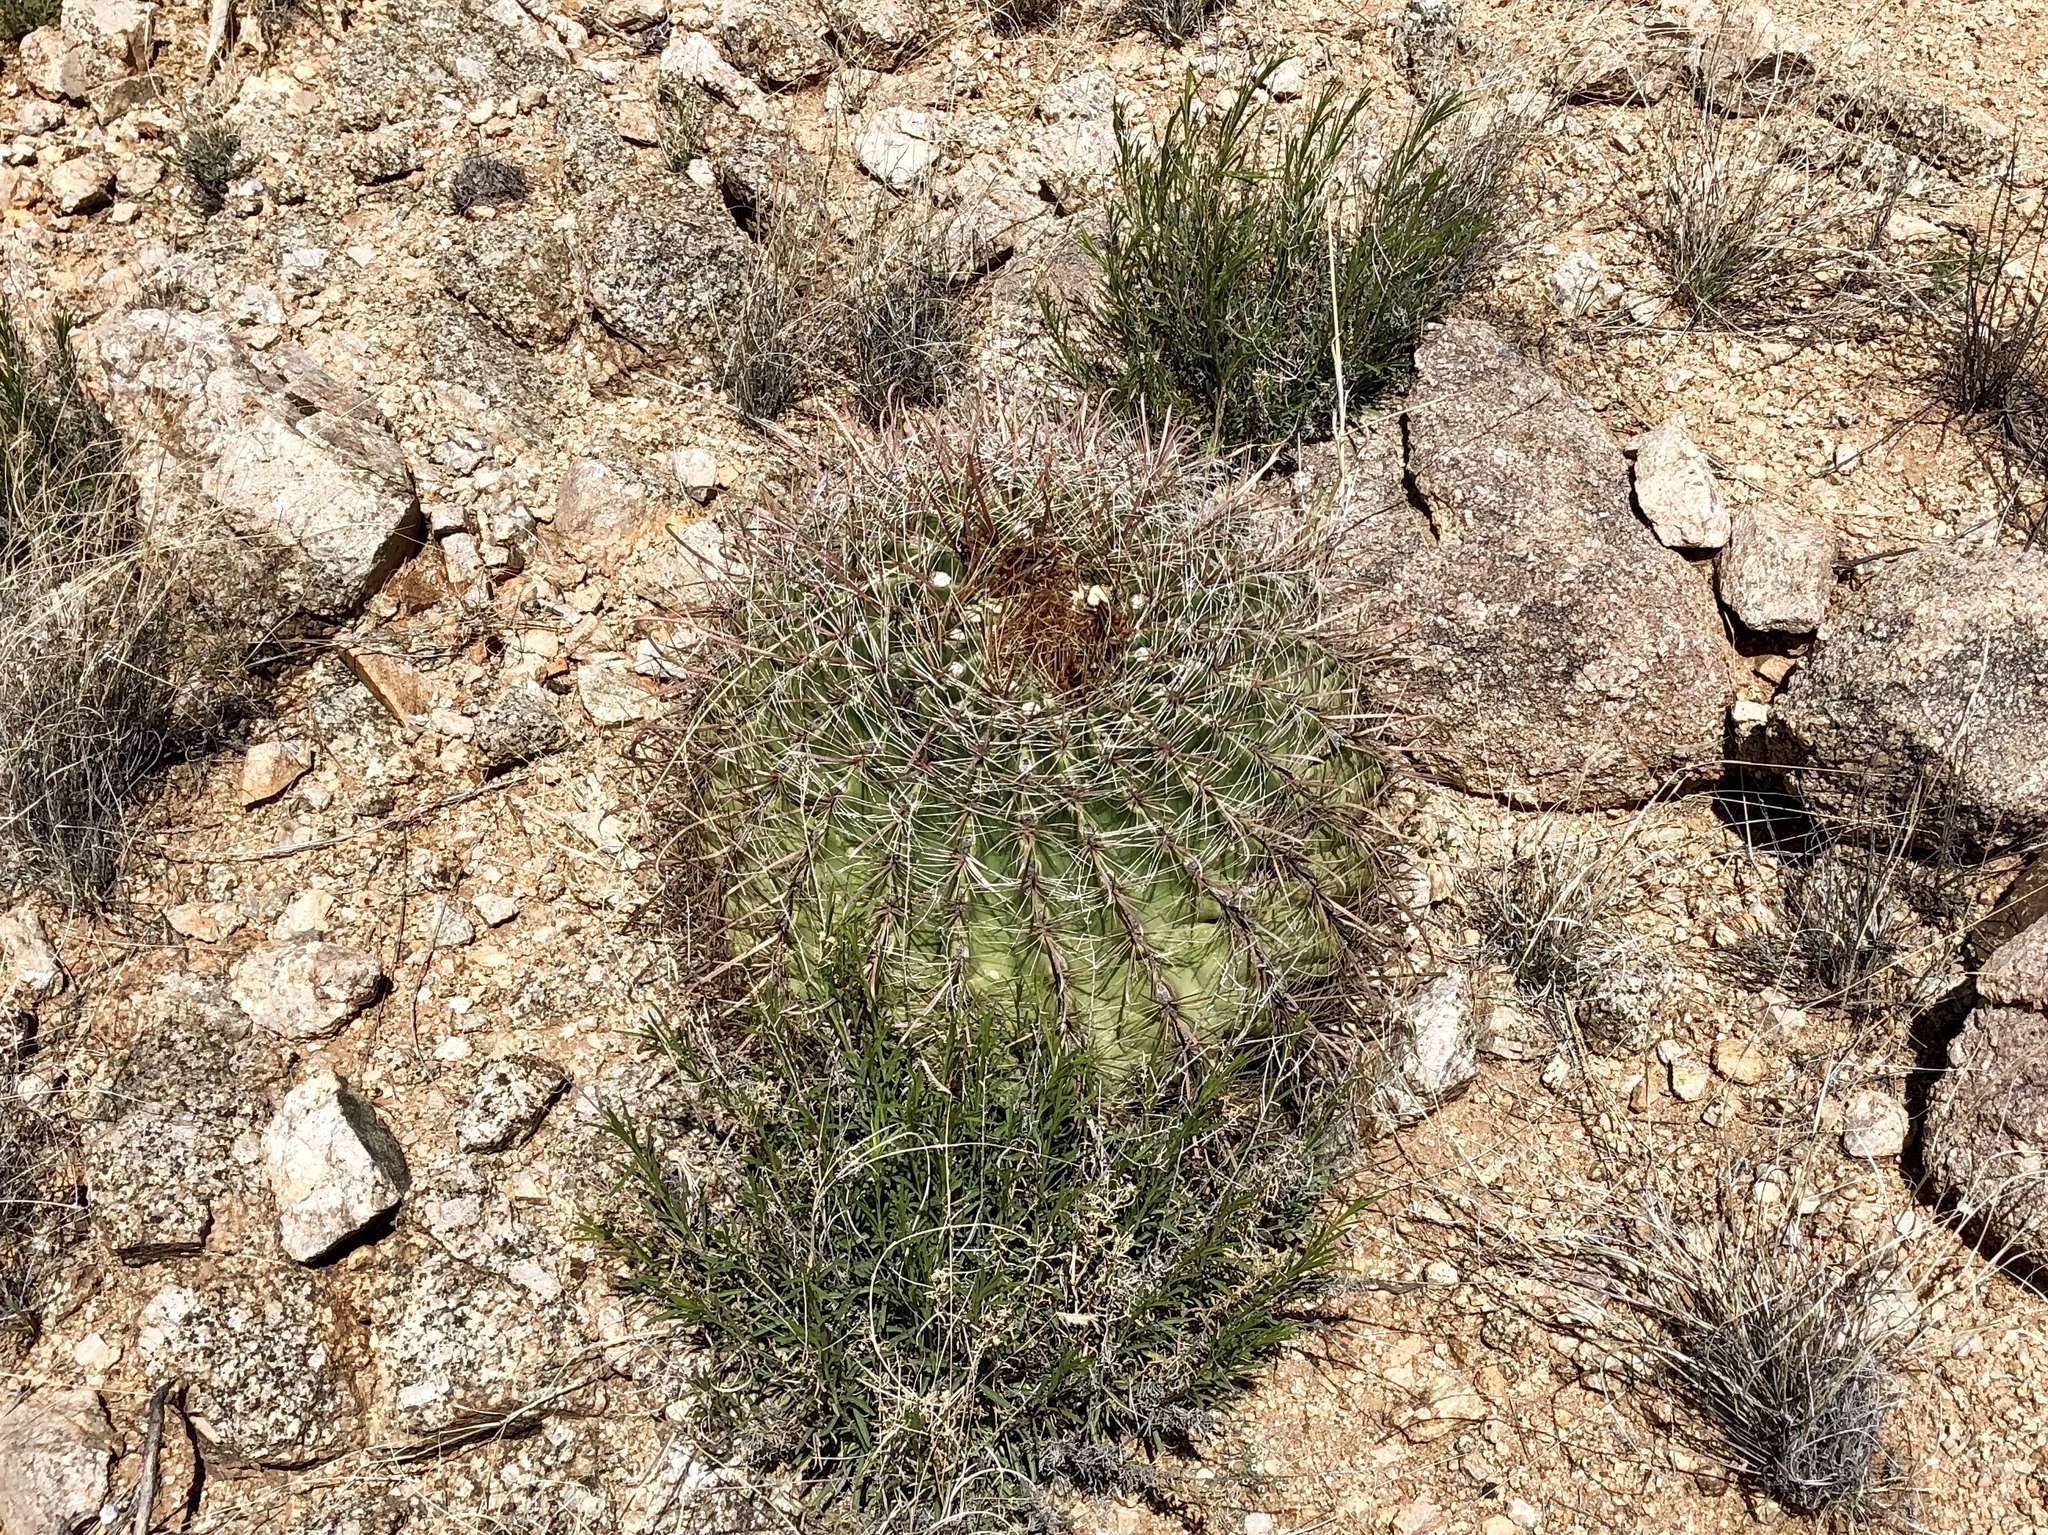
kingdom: Plantae
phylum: Tracheophyta
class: Magnoliopsida
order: Caryophyllales
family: Cactaceae
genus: Ferocactus
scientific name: Ferocactus wislizeni
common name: Candy barrel cactus
